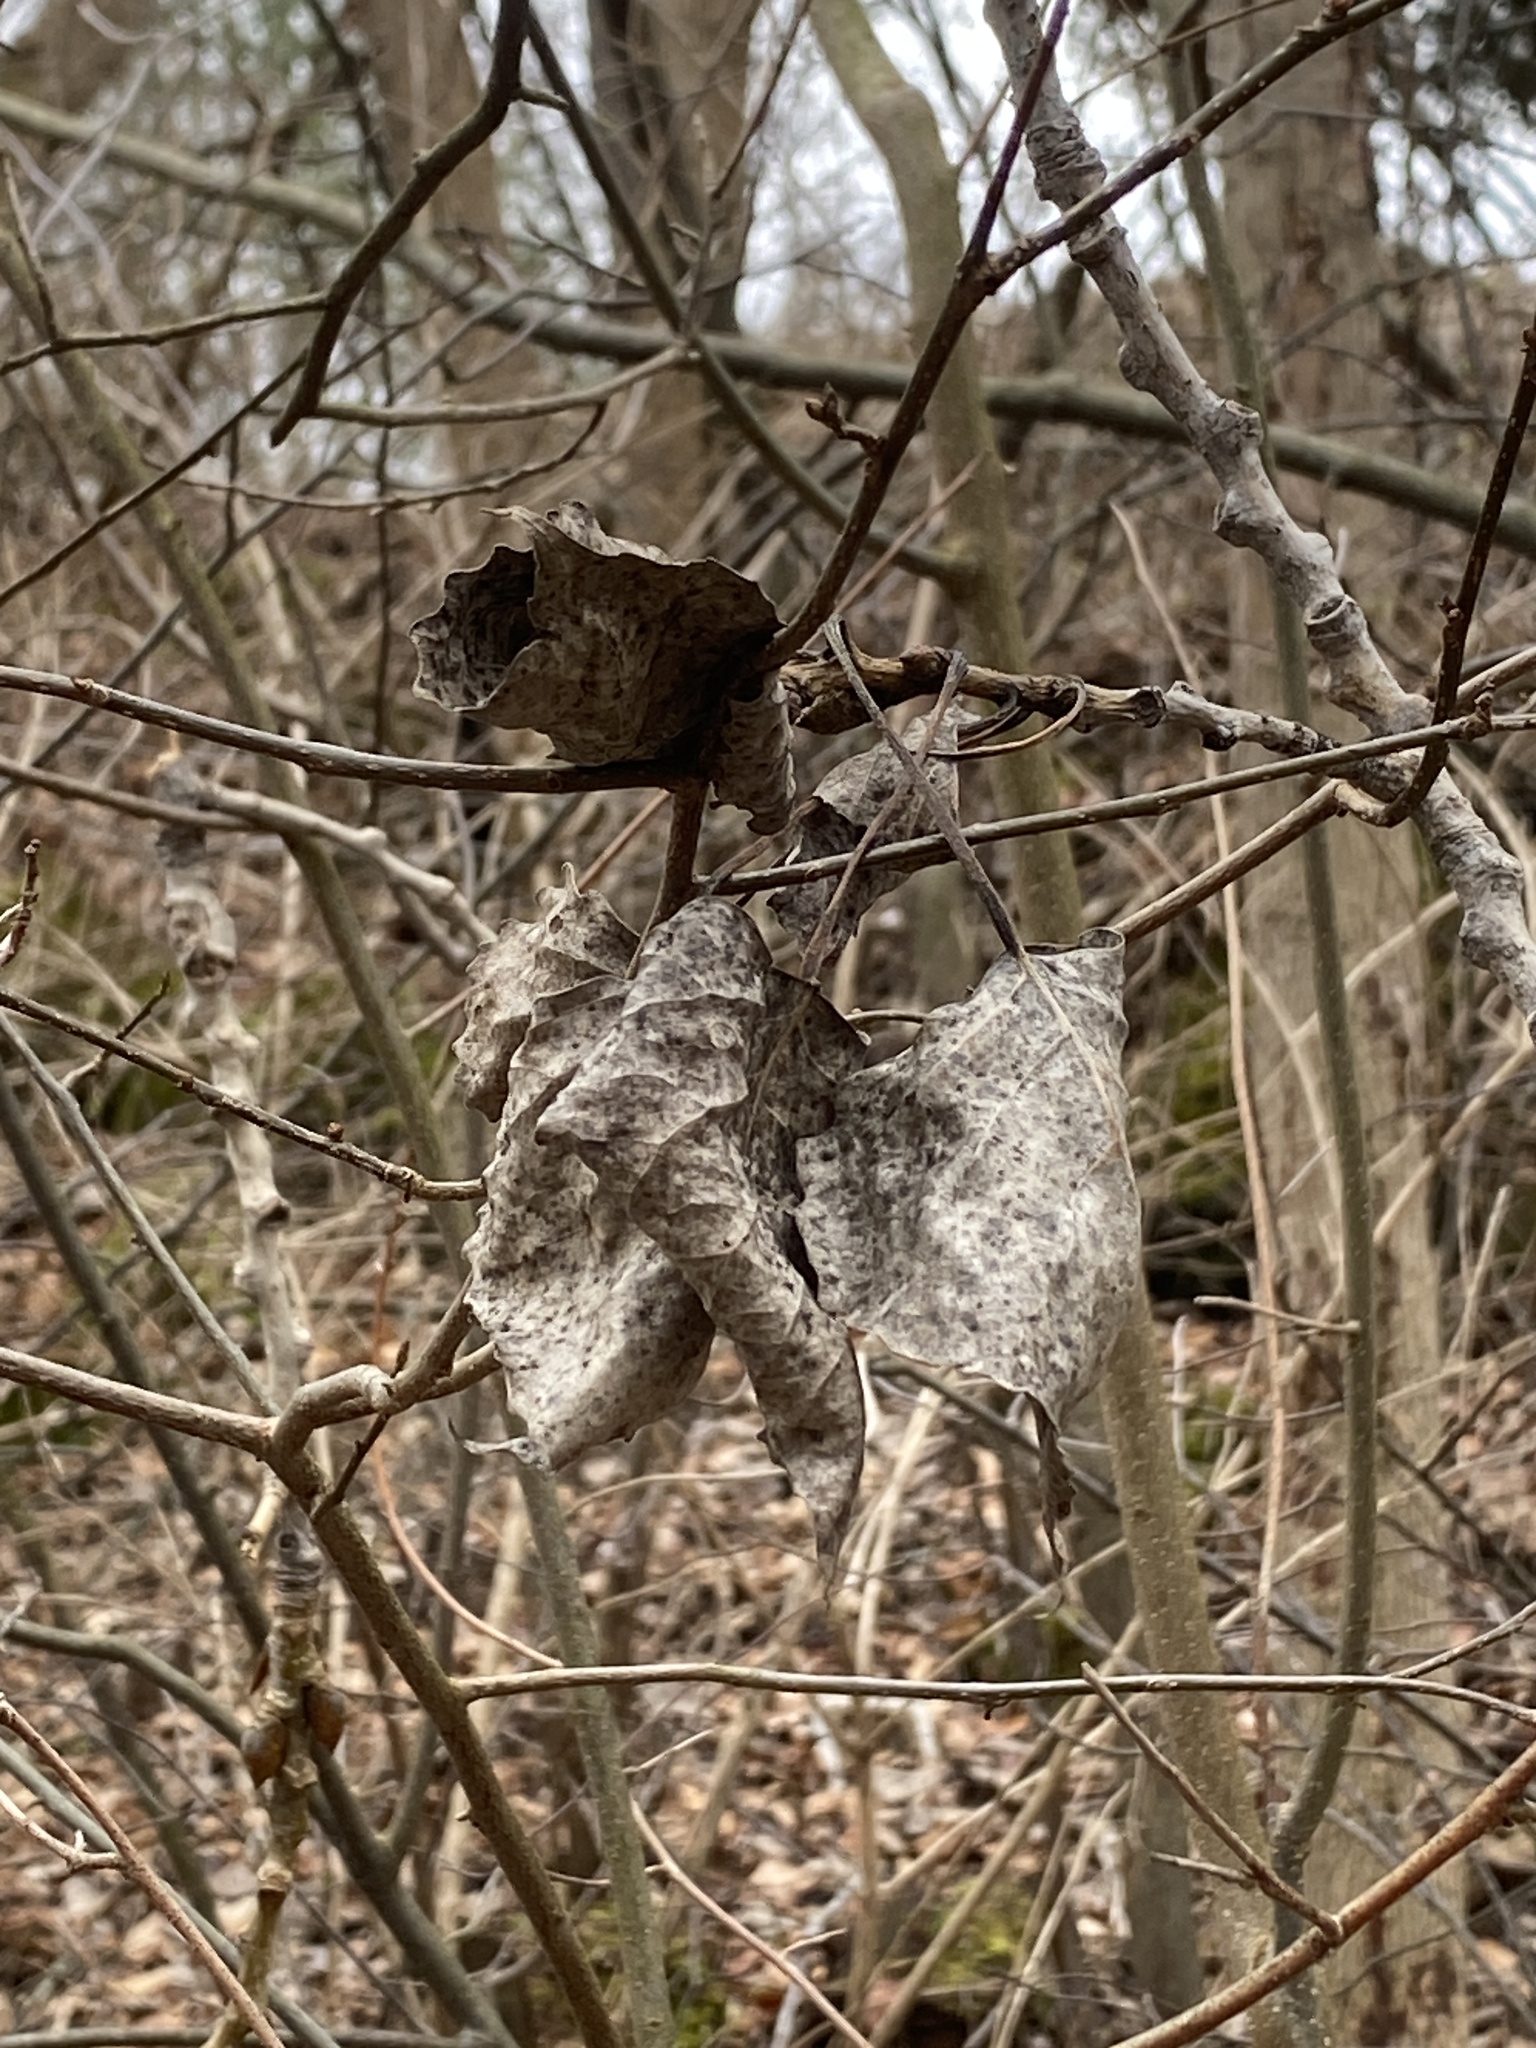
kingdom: Plantae
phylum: Tracheophyta
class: Magnoliopsida
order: Malpighiales
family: Salicaceae
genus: Populus
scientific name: Populus deltoides
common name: Eastern cottonwood
